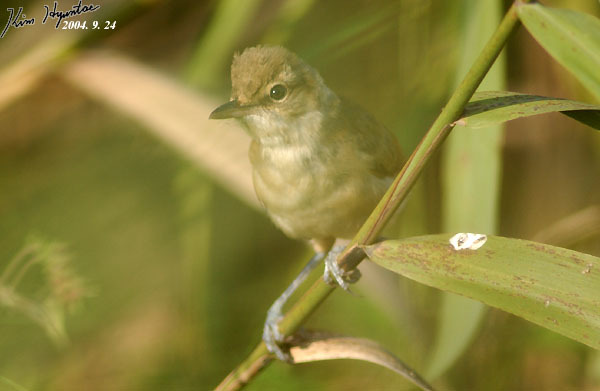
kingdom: Animalia
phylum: Chordata
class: Aves
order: Passeriformes
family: Acrocephalidae
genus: Acrocephalus
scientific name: Acrocephalus orientalis
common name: Oriental reed warbler
